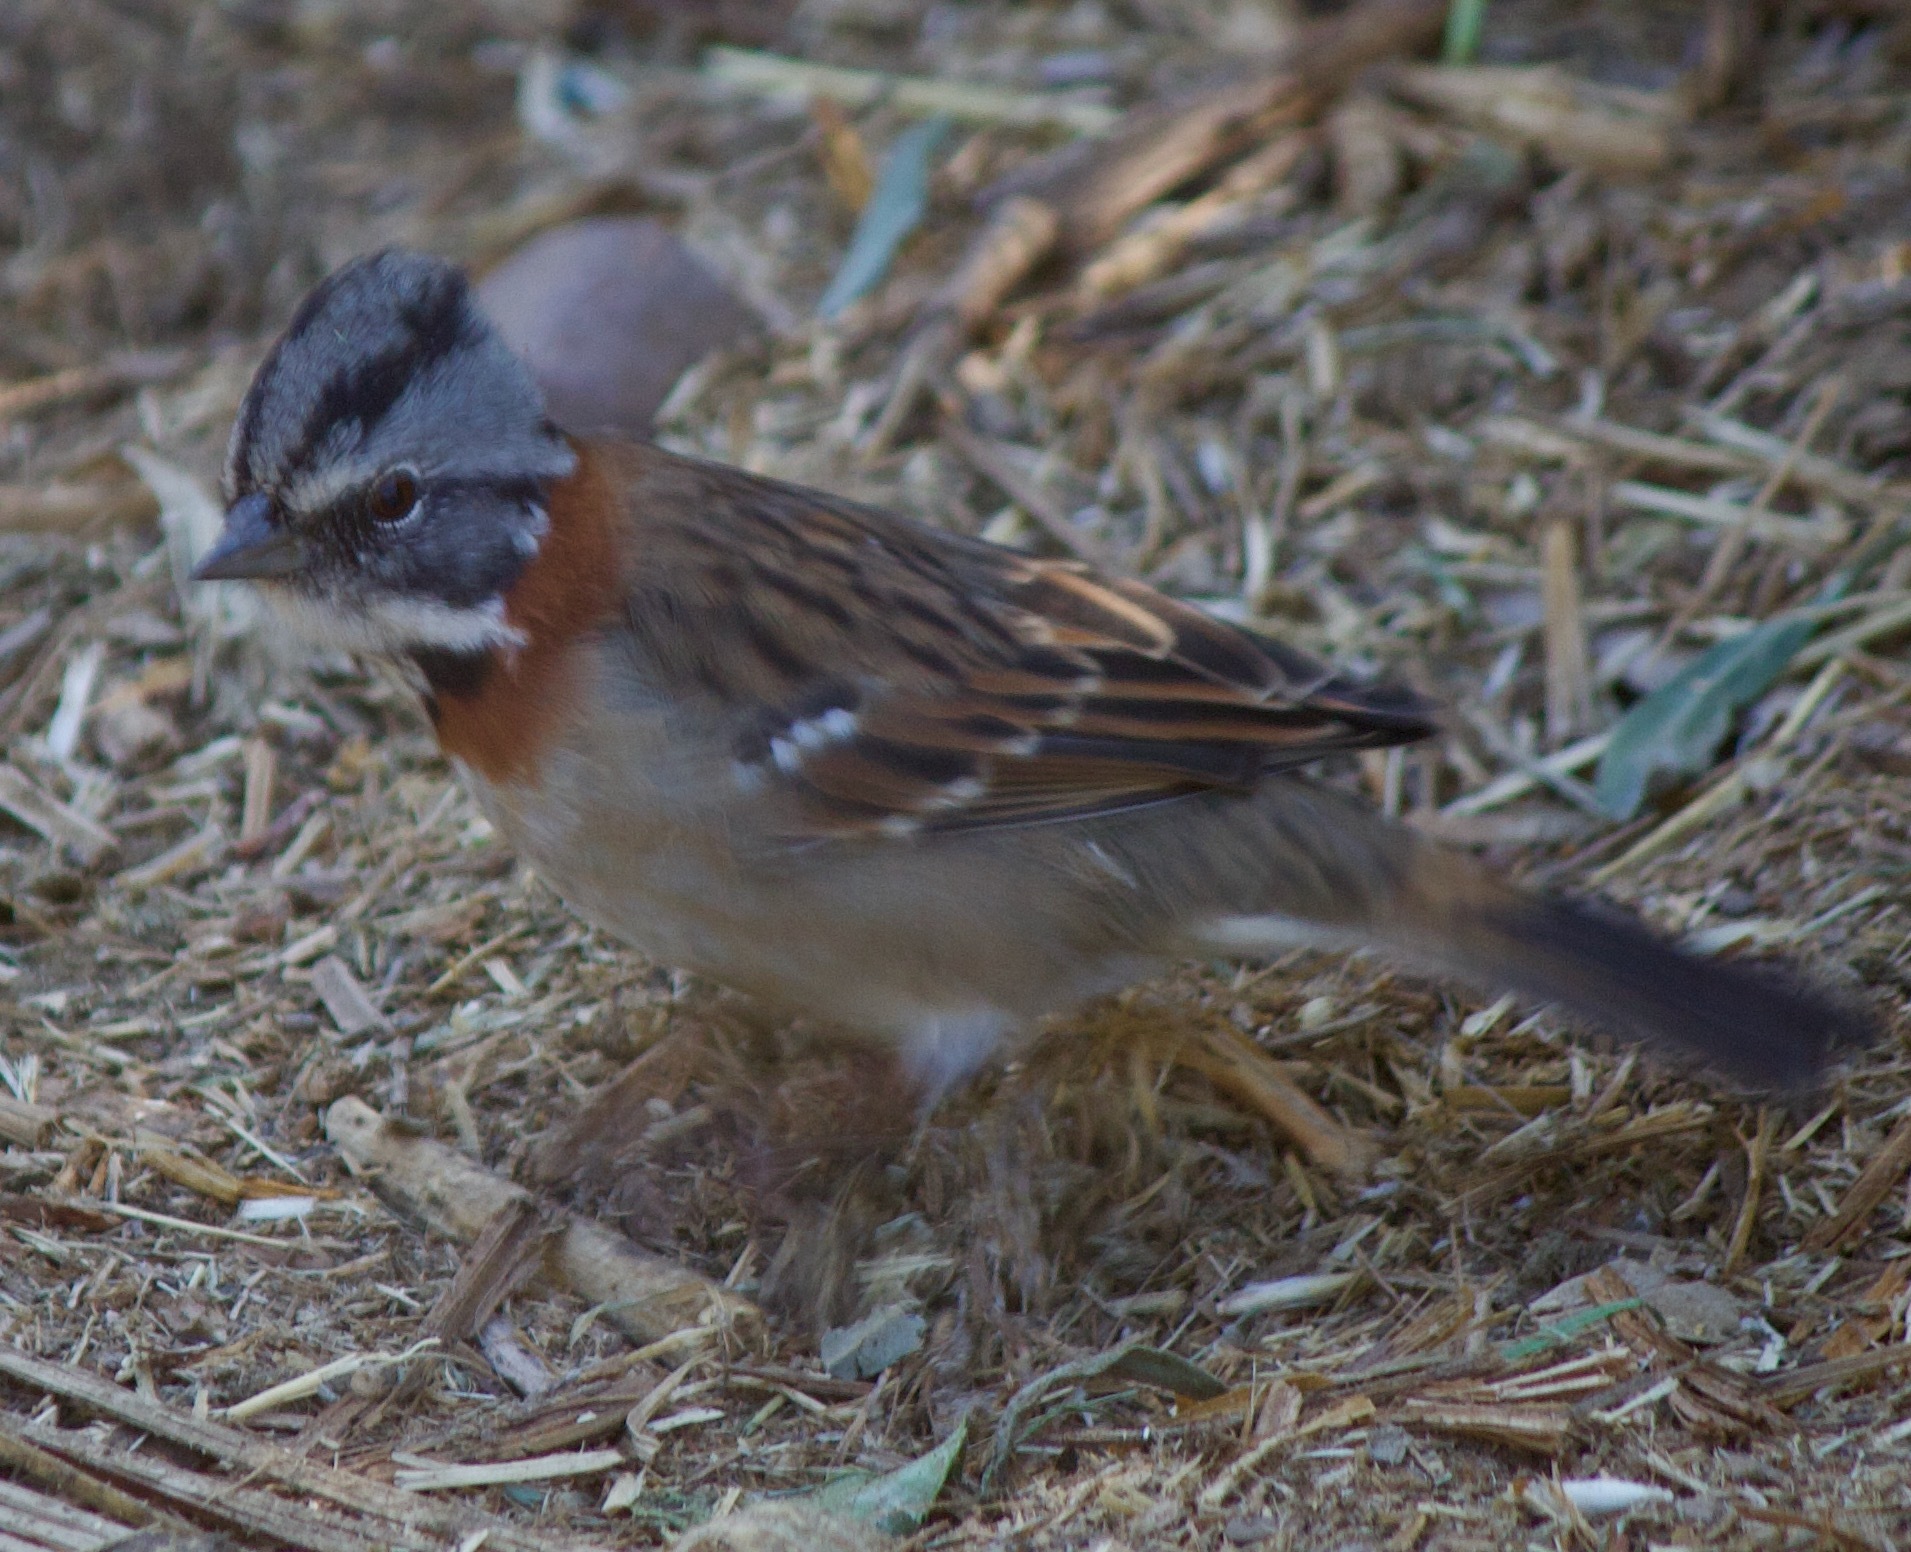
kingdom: Animalia
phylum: Chordata
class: Aves
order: Passeriformes
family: Passerellidae
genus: Zonotrichia
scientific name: Zonotrichia capensis
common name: Rufous-collared sparrow
